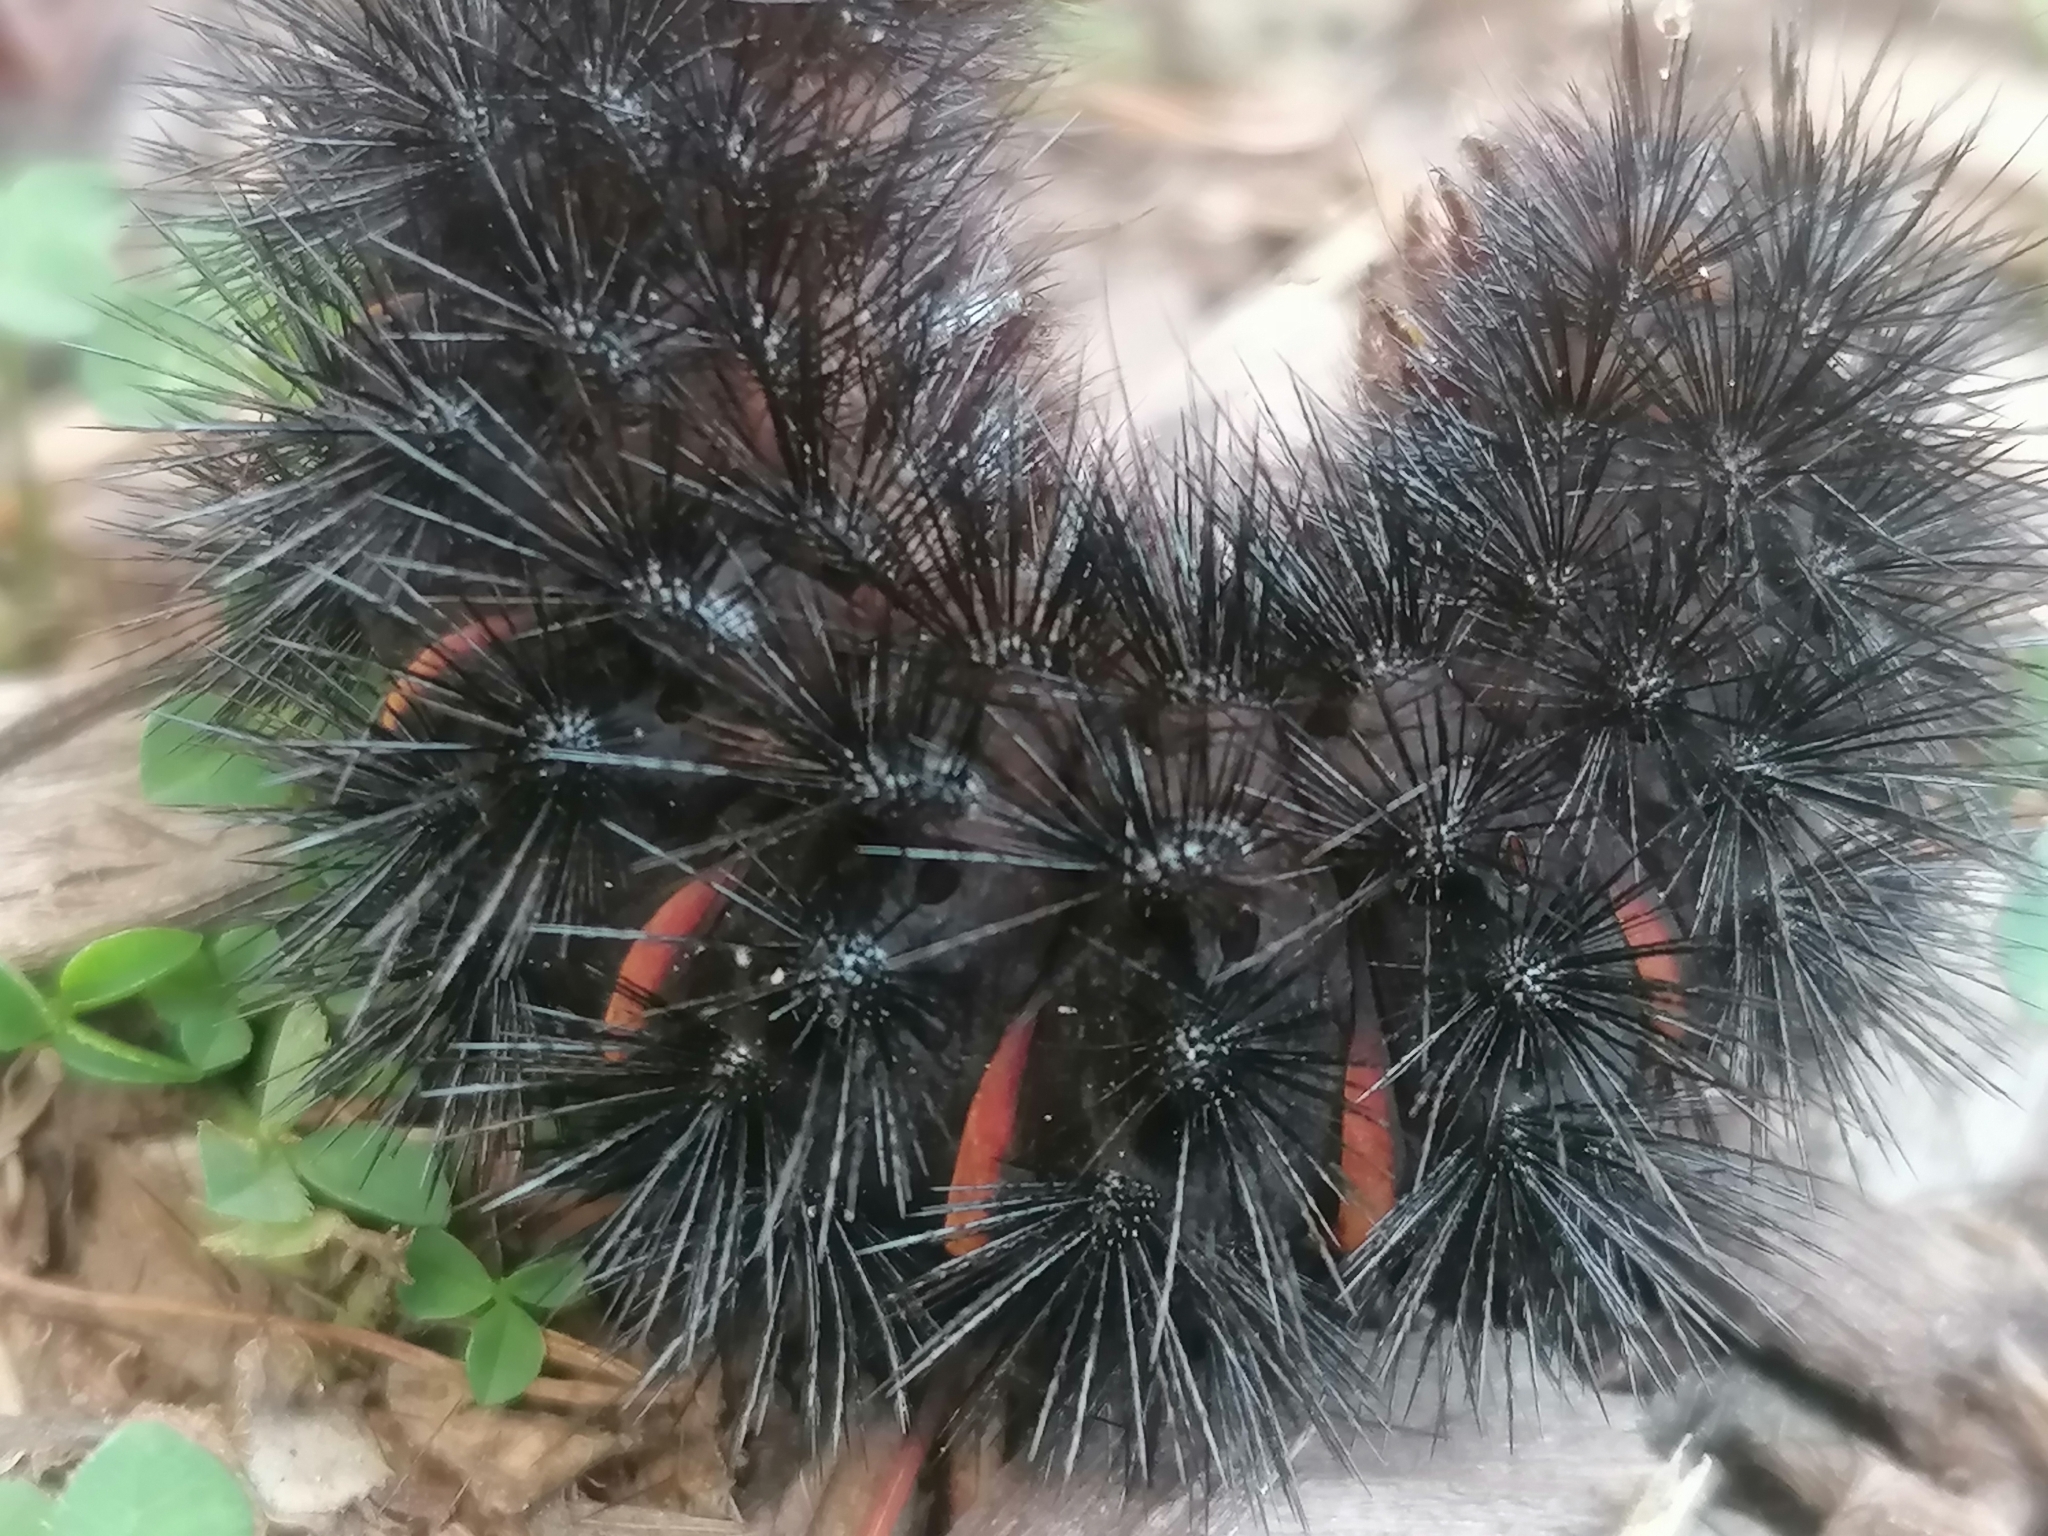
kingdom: Animalia
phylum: Arthropoda
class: Insecta
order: Lepidoptera
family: Erebidae
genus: Hypercompe
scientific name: Hypercompe scribonia
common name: Giant leopard moth
